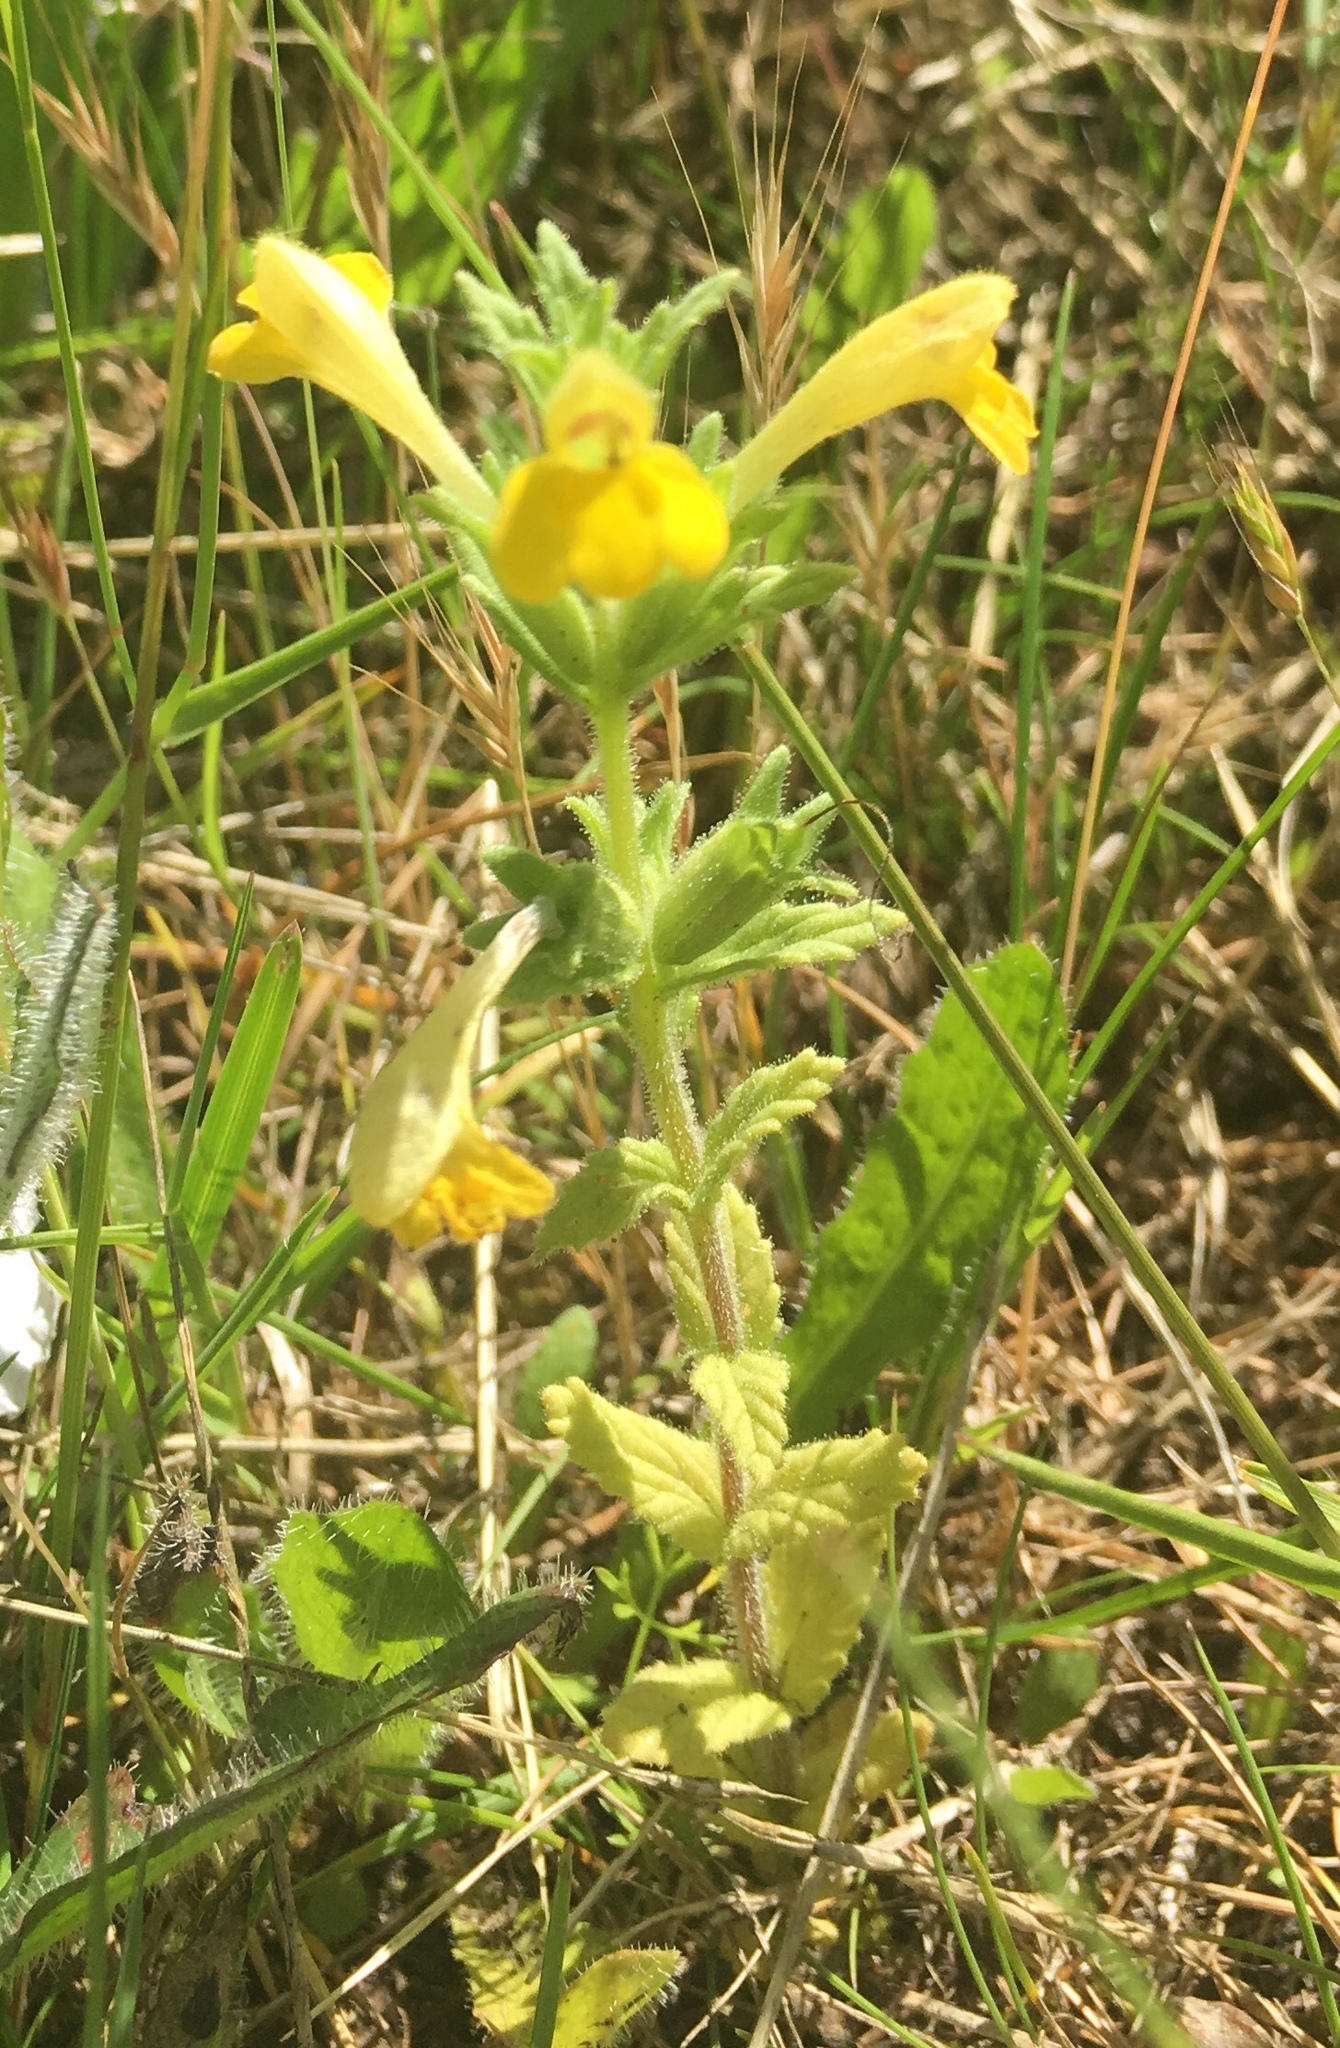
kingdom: Plantae
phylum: Tracheophyta
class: Magnoliopsida
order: Lamiales
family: Orobanchaceae
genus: Bellardia
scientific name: Bellardia viscosa
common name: Sticky parentucellia
